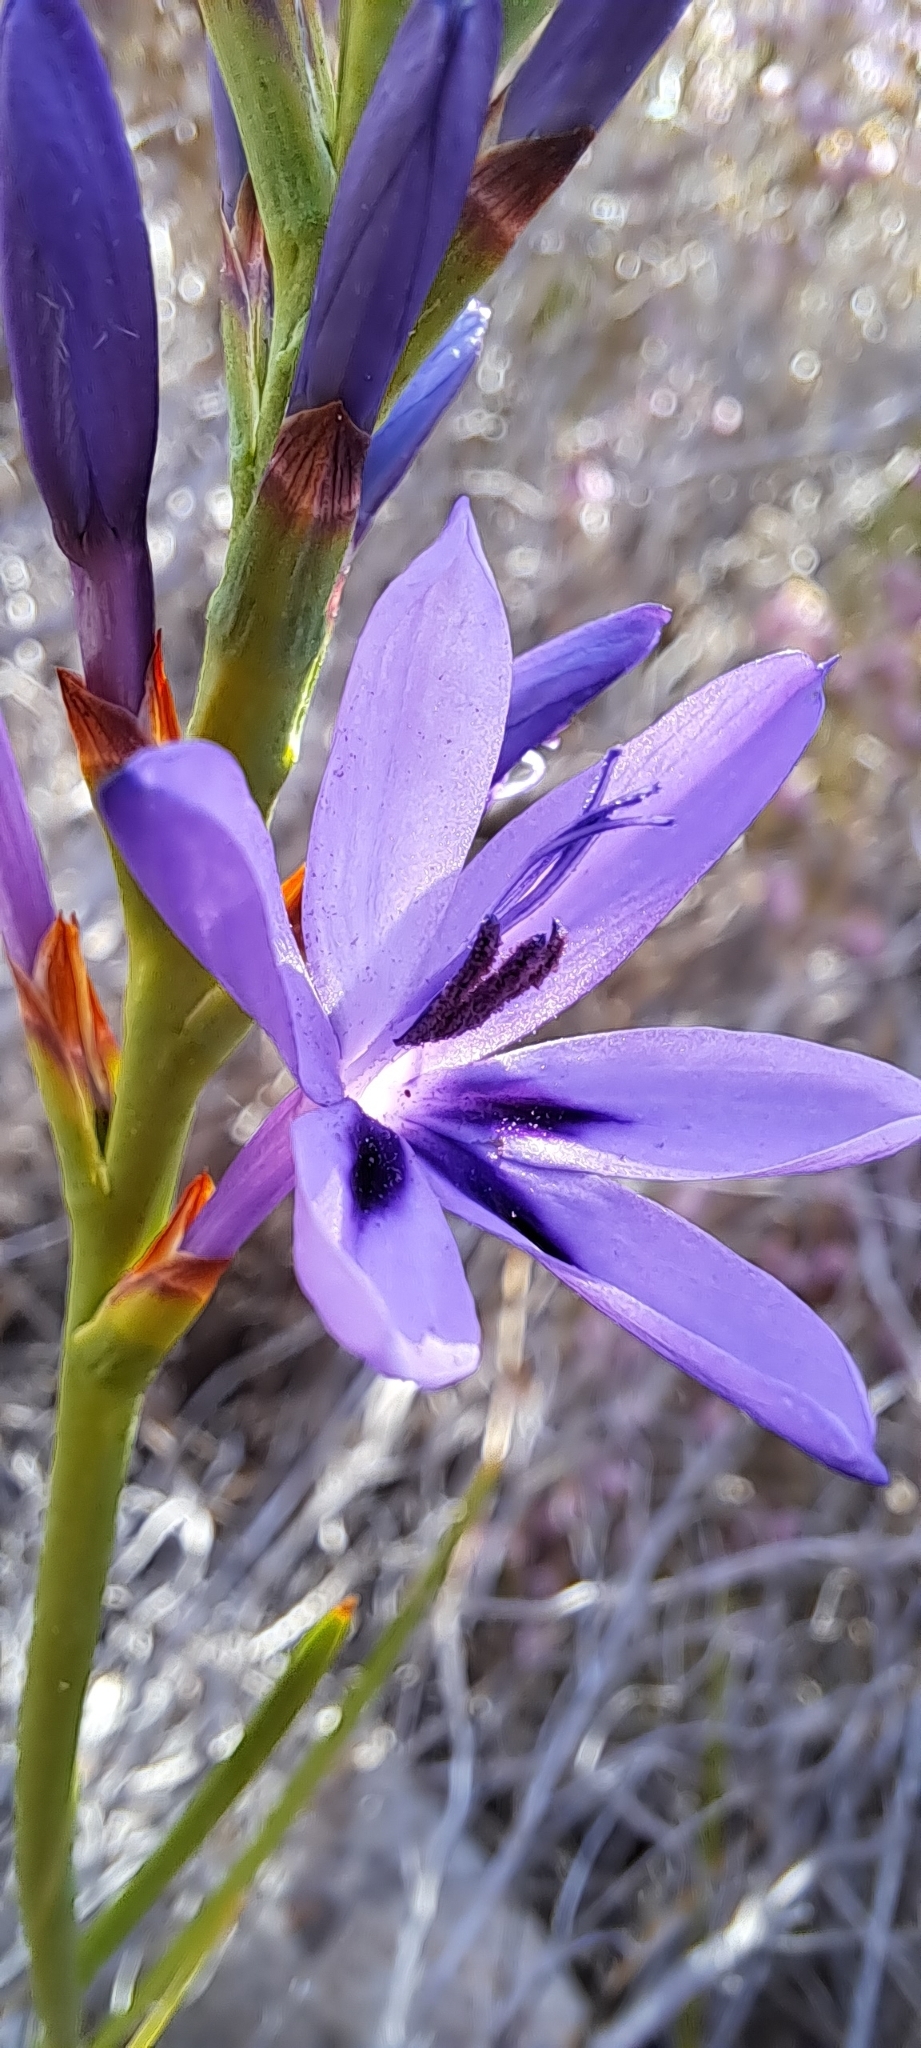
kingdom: Plantae
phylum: Tracheophyta
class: Liliopsida
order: Asparagales
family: Iridaceae
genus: Thereianthus
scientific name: Thereianthus spicatus
